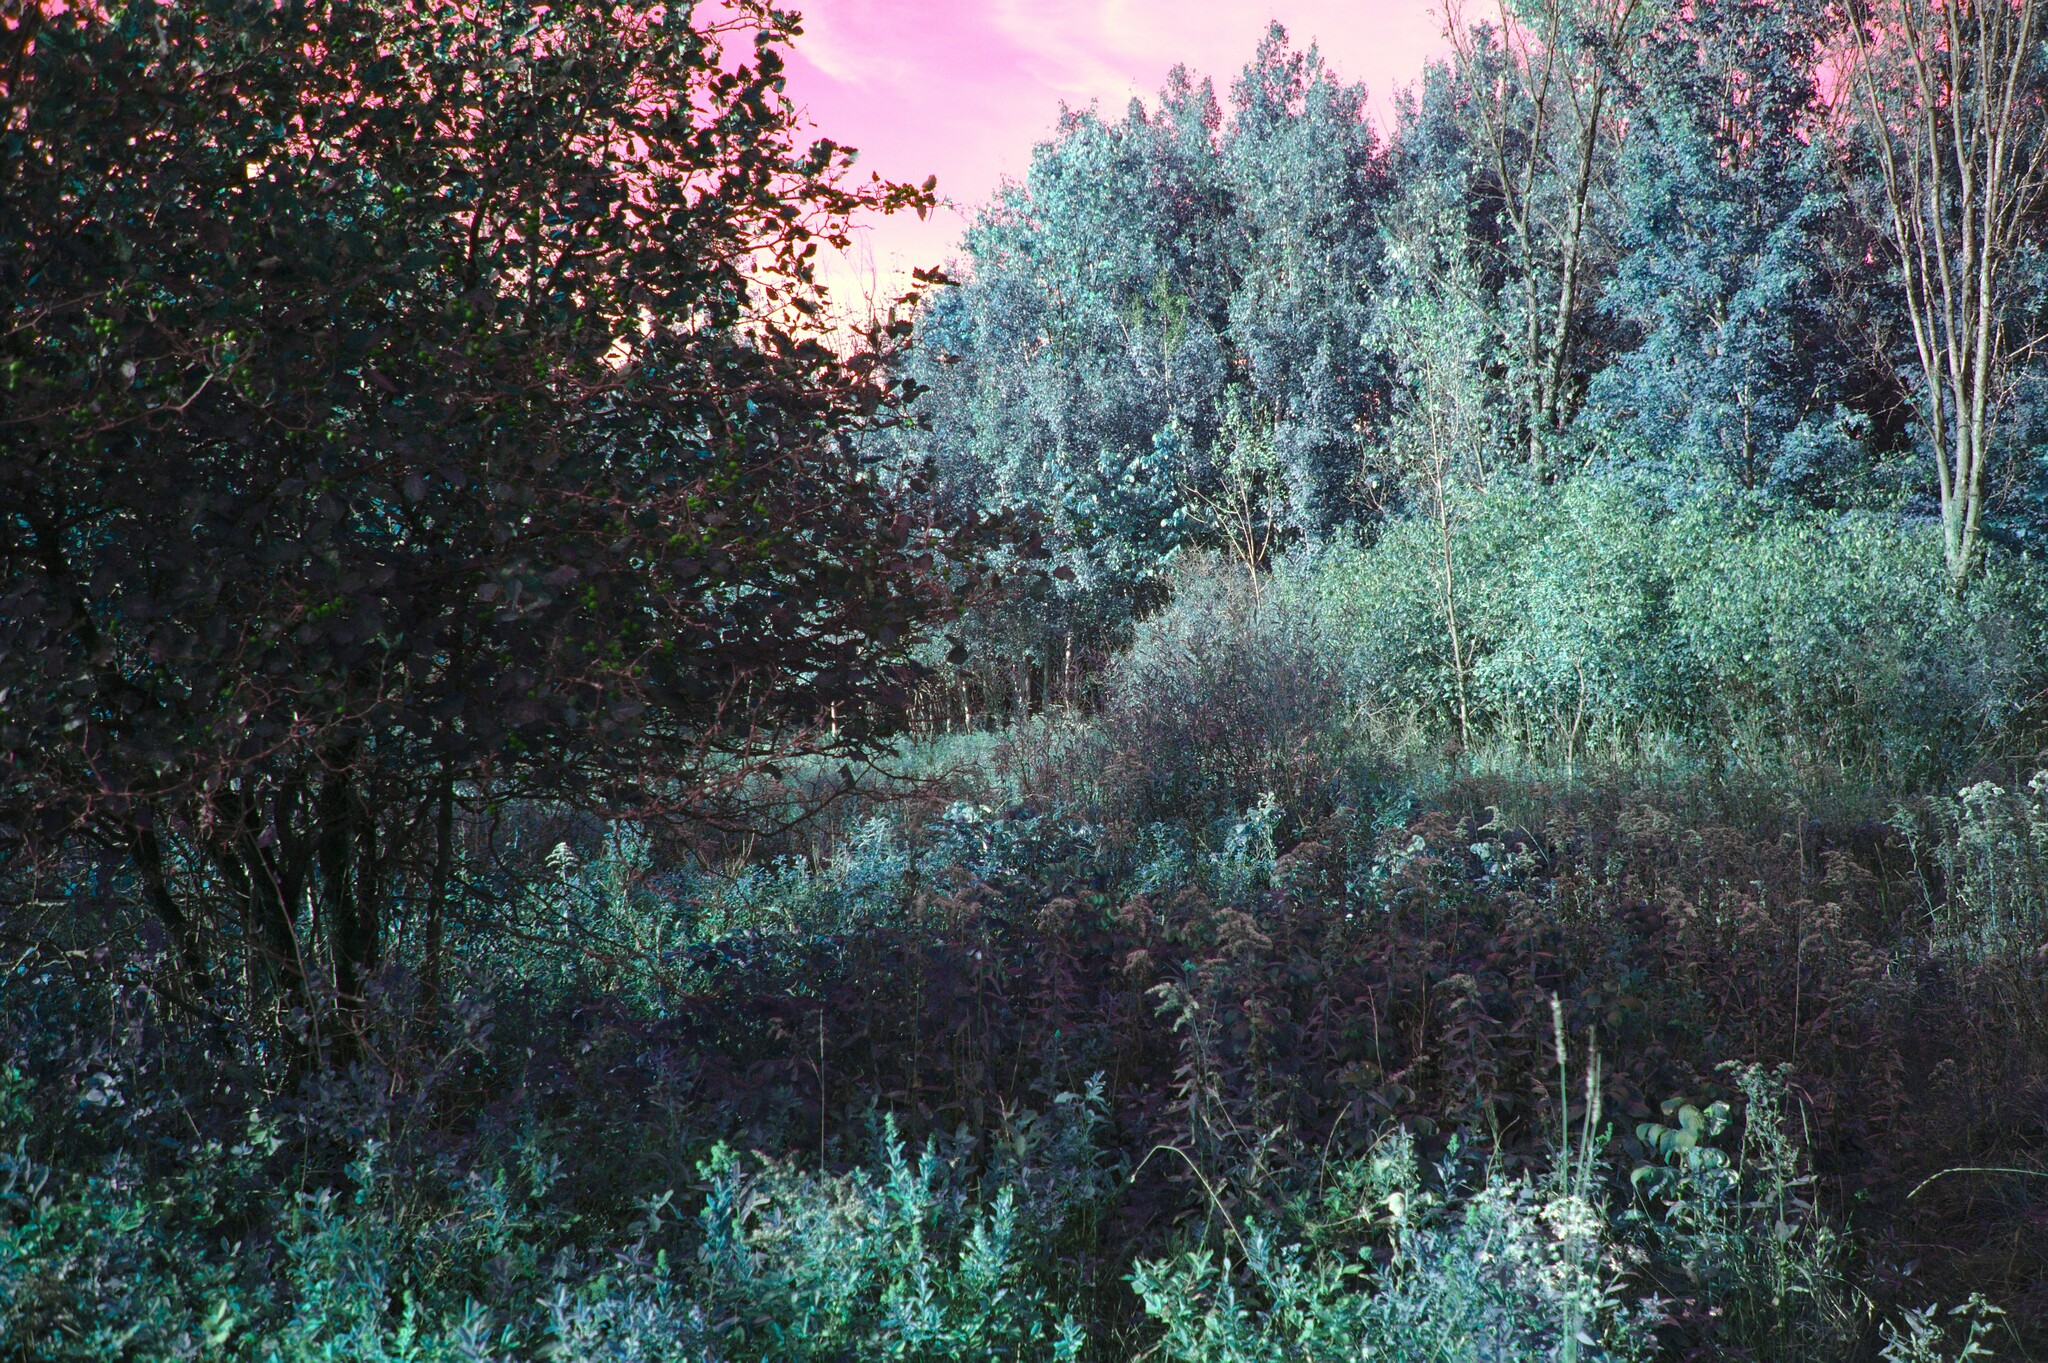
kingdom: Plantae
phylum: Tracheophyta
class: Magnoliopsida
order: Rosales
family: Rosaceae
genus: Crataegus
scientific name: Crataegus submollis
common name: Hairy cockspurthorn
